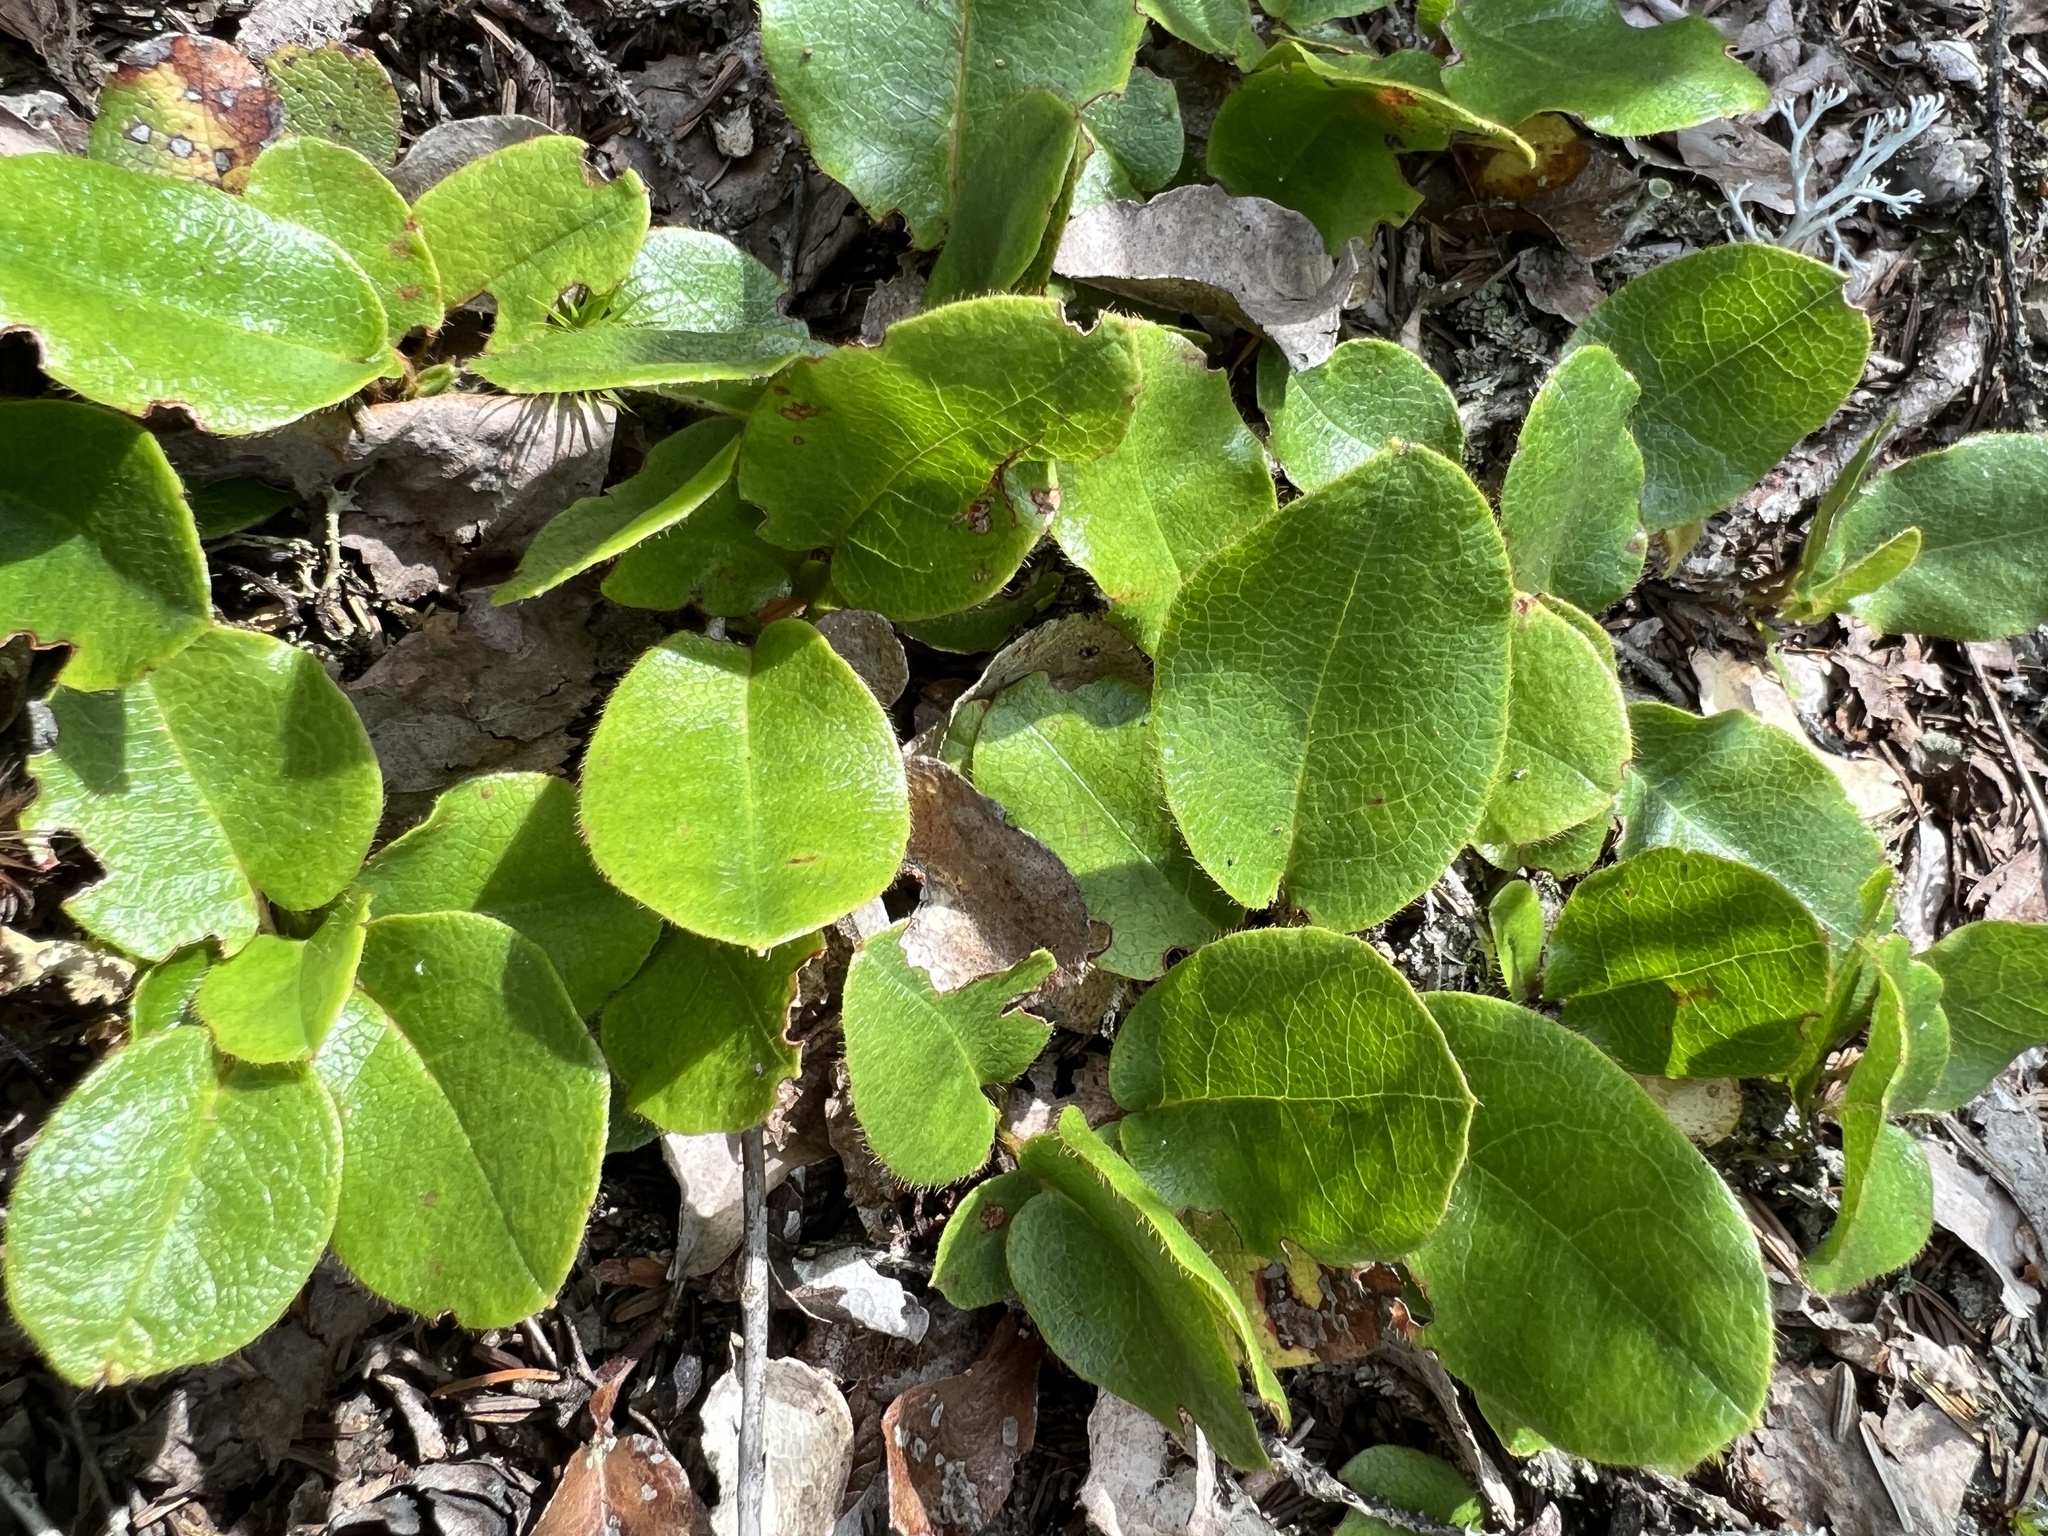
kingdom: Plantae
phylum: Tracheophyta
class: Magnoliopsida
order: Ericales
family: Ericaceae
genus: Epigaea
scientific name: Epigaea repens
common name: Gravelroot
